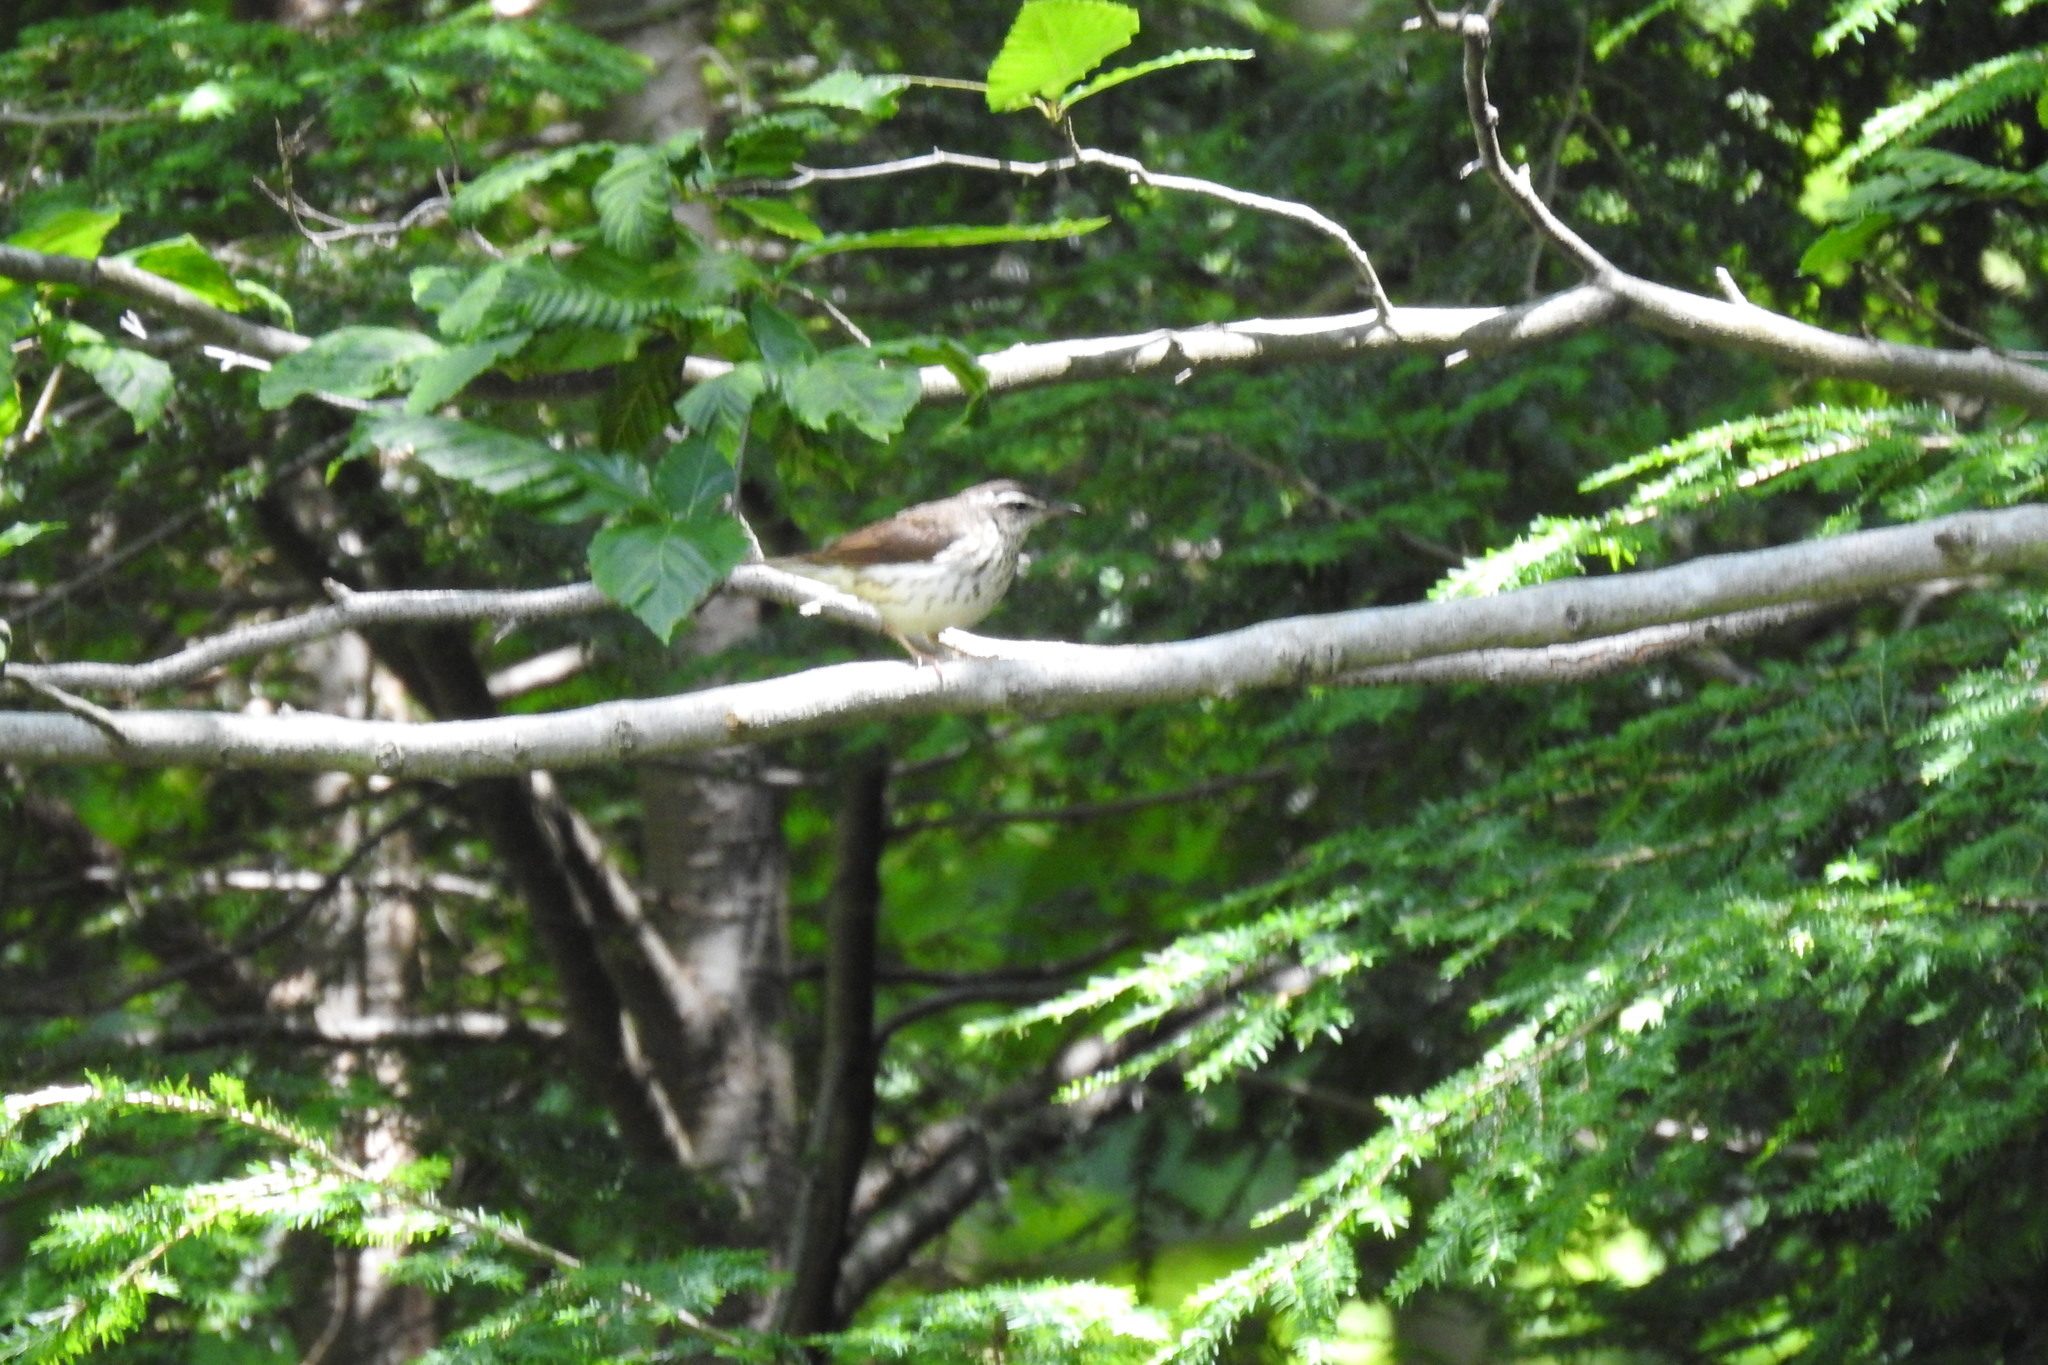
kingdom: Animalia
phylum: Chordata
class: Aves
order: Passeriformes
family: Parulidae
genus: Parkesia
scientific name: Parkesia motacilla
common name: Louisiana waterthrush
